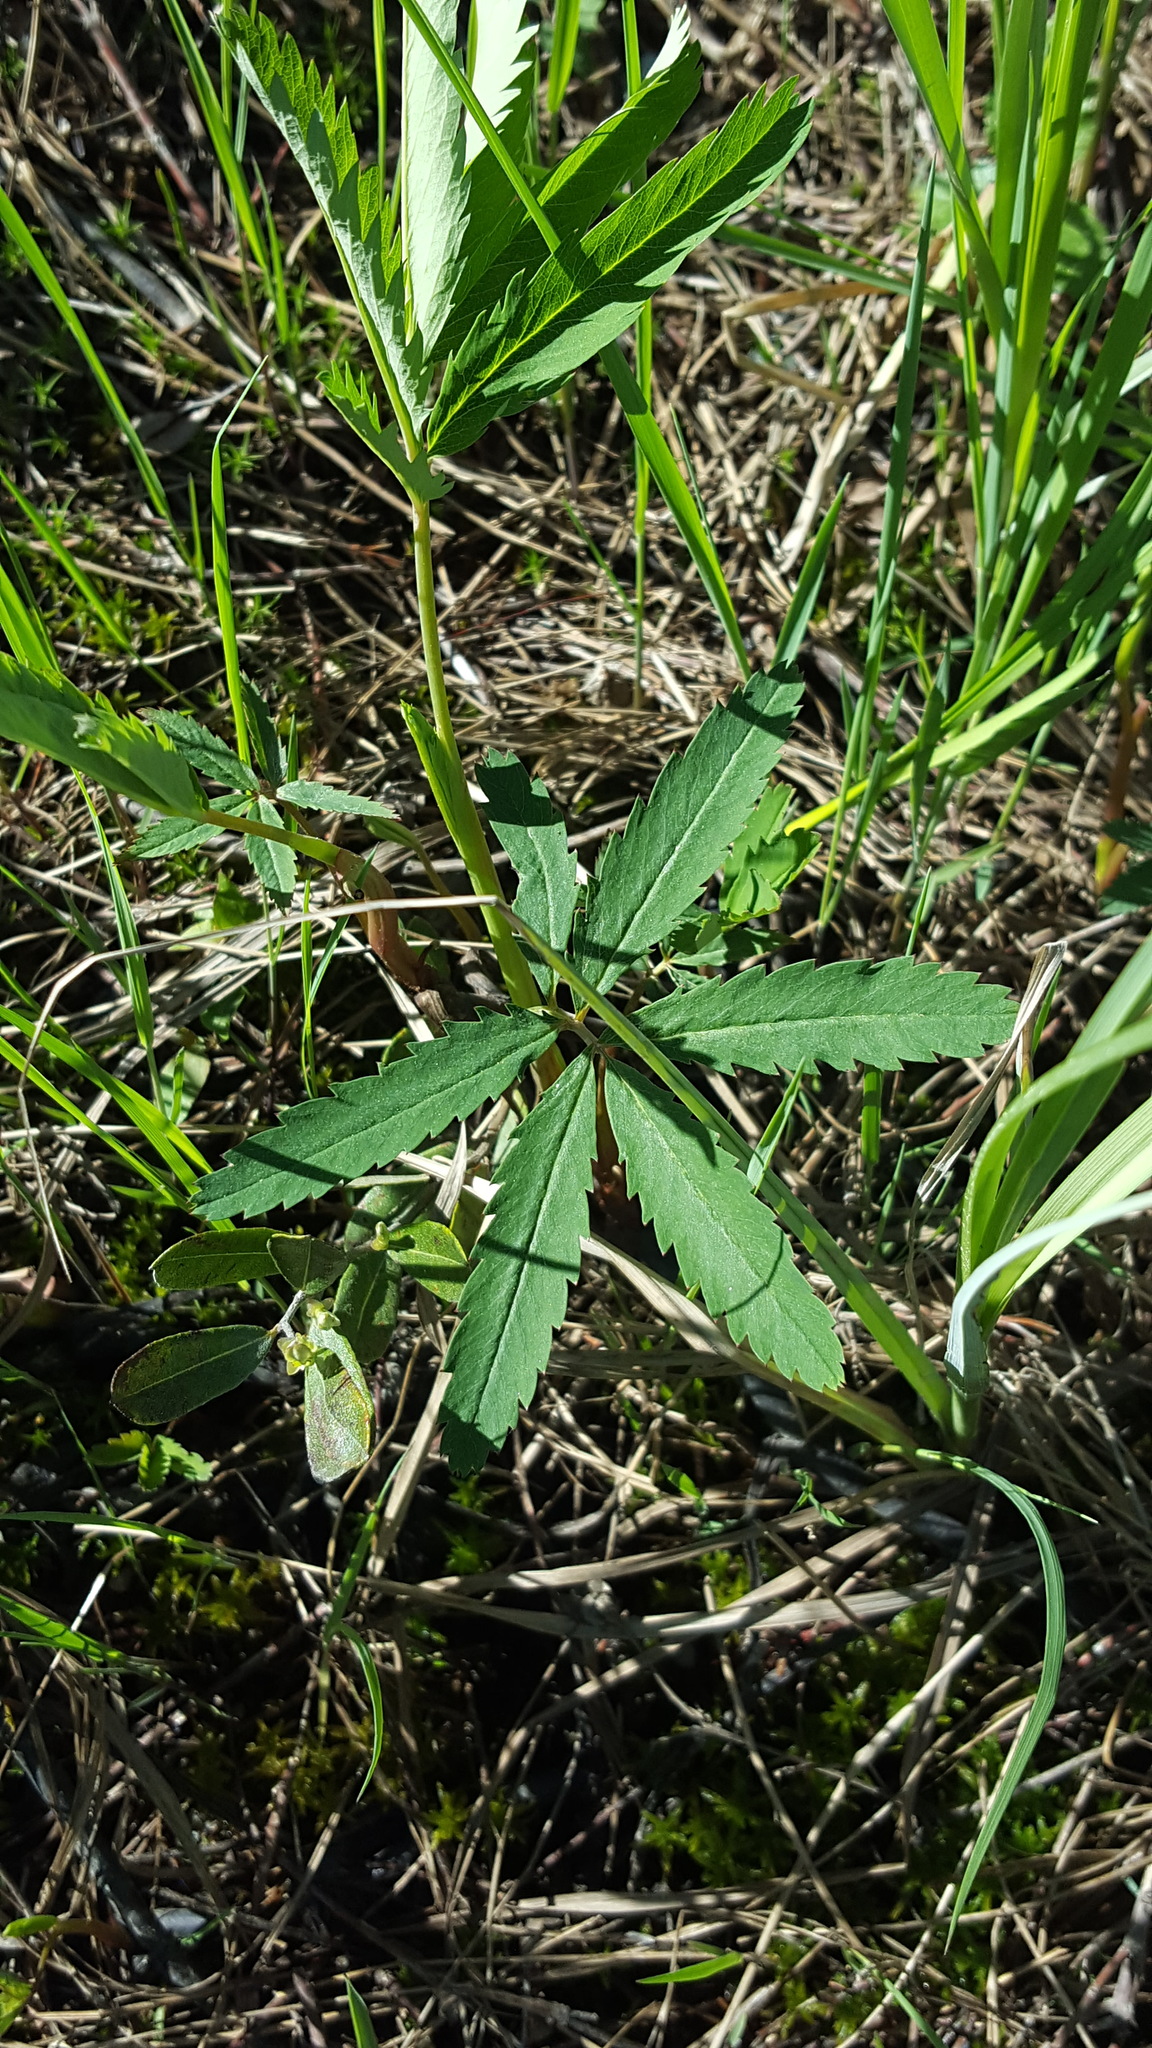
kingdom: Plantae
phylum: Tracheophyta
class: Magnoliopsida
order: Rosales
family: Rosaceae
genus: Comarum
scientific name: Comarum palustre
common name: Marsh cinquefoil
